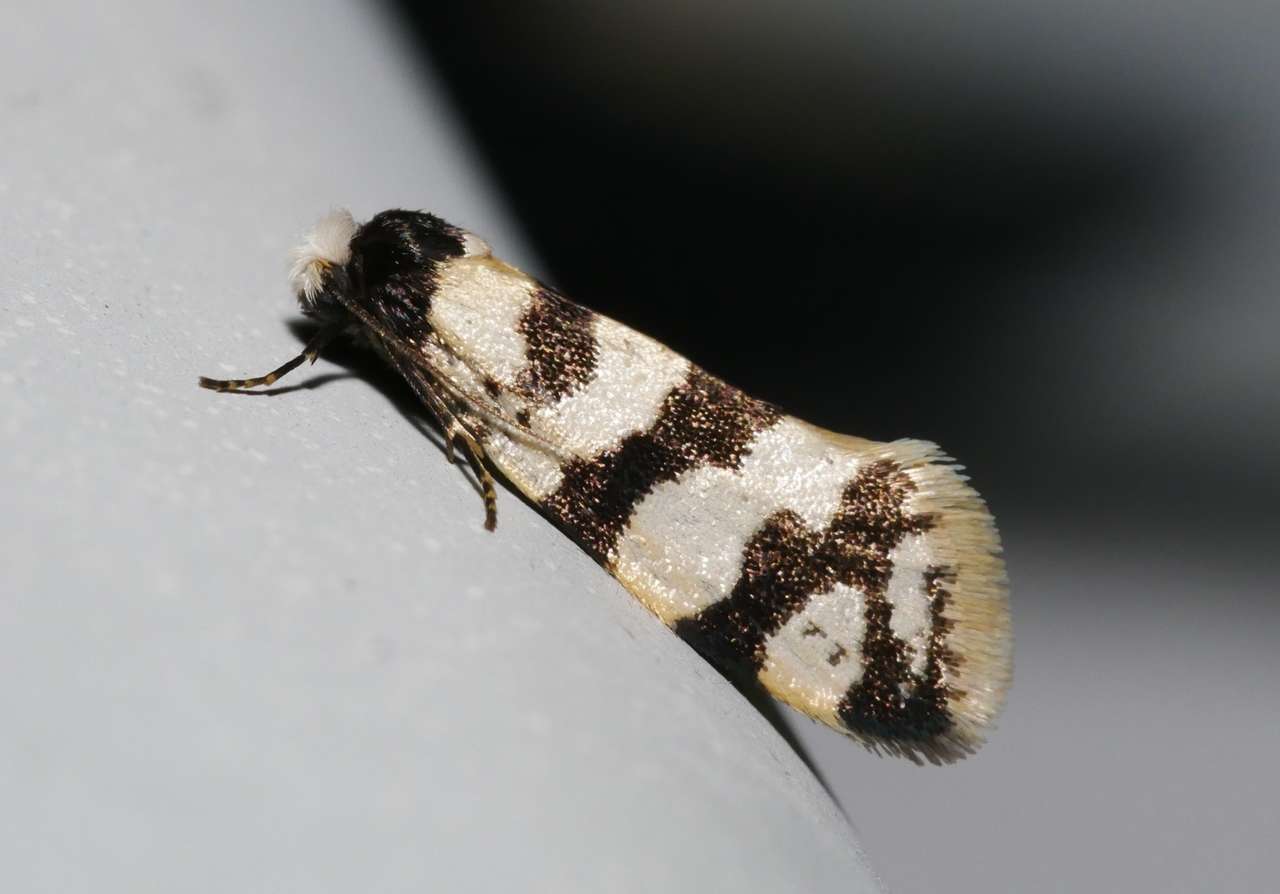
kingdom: Animalia
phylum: Arthropoda
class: Insecta
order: Lepidoptera
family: Psychidae
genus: Lepidoscia
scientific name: Lepidoscia characota
